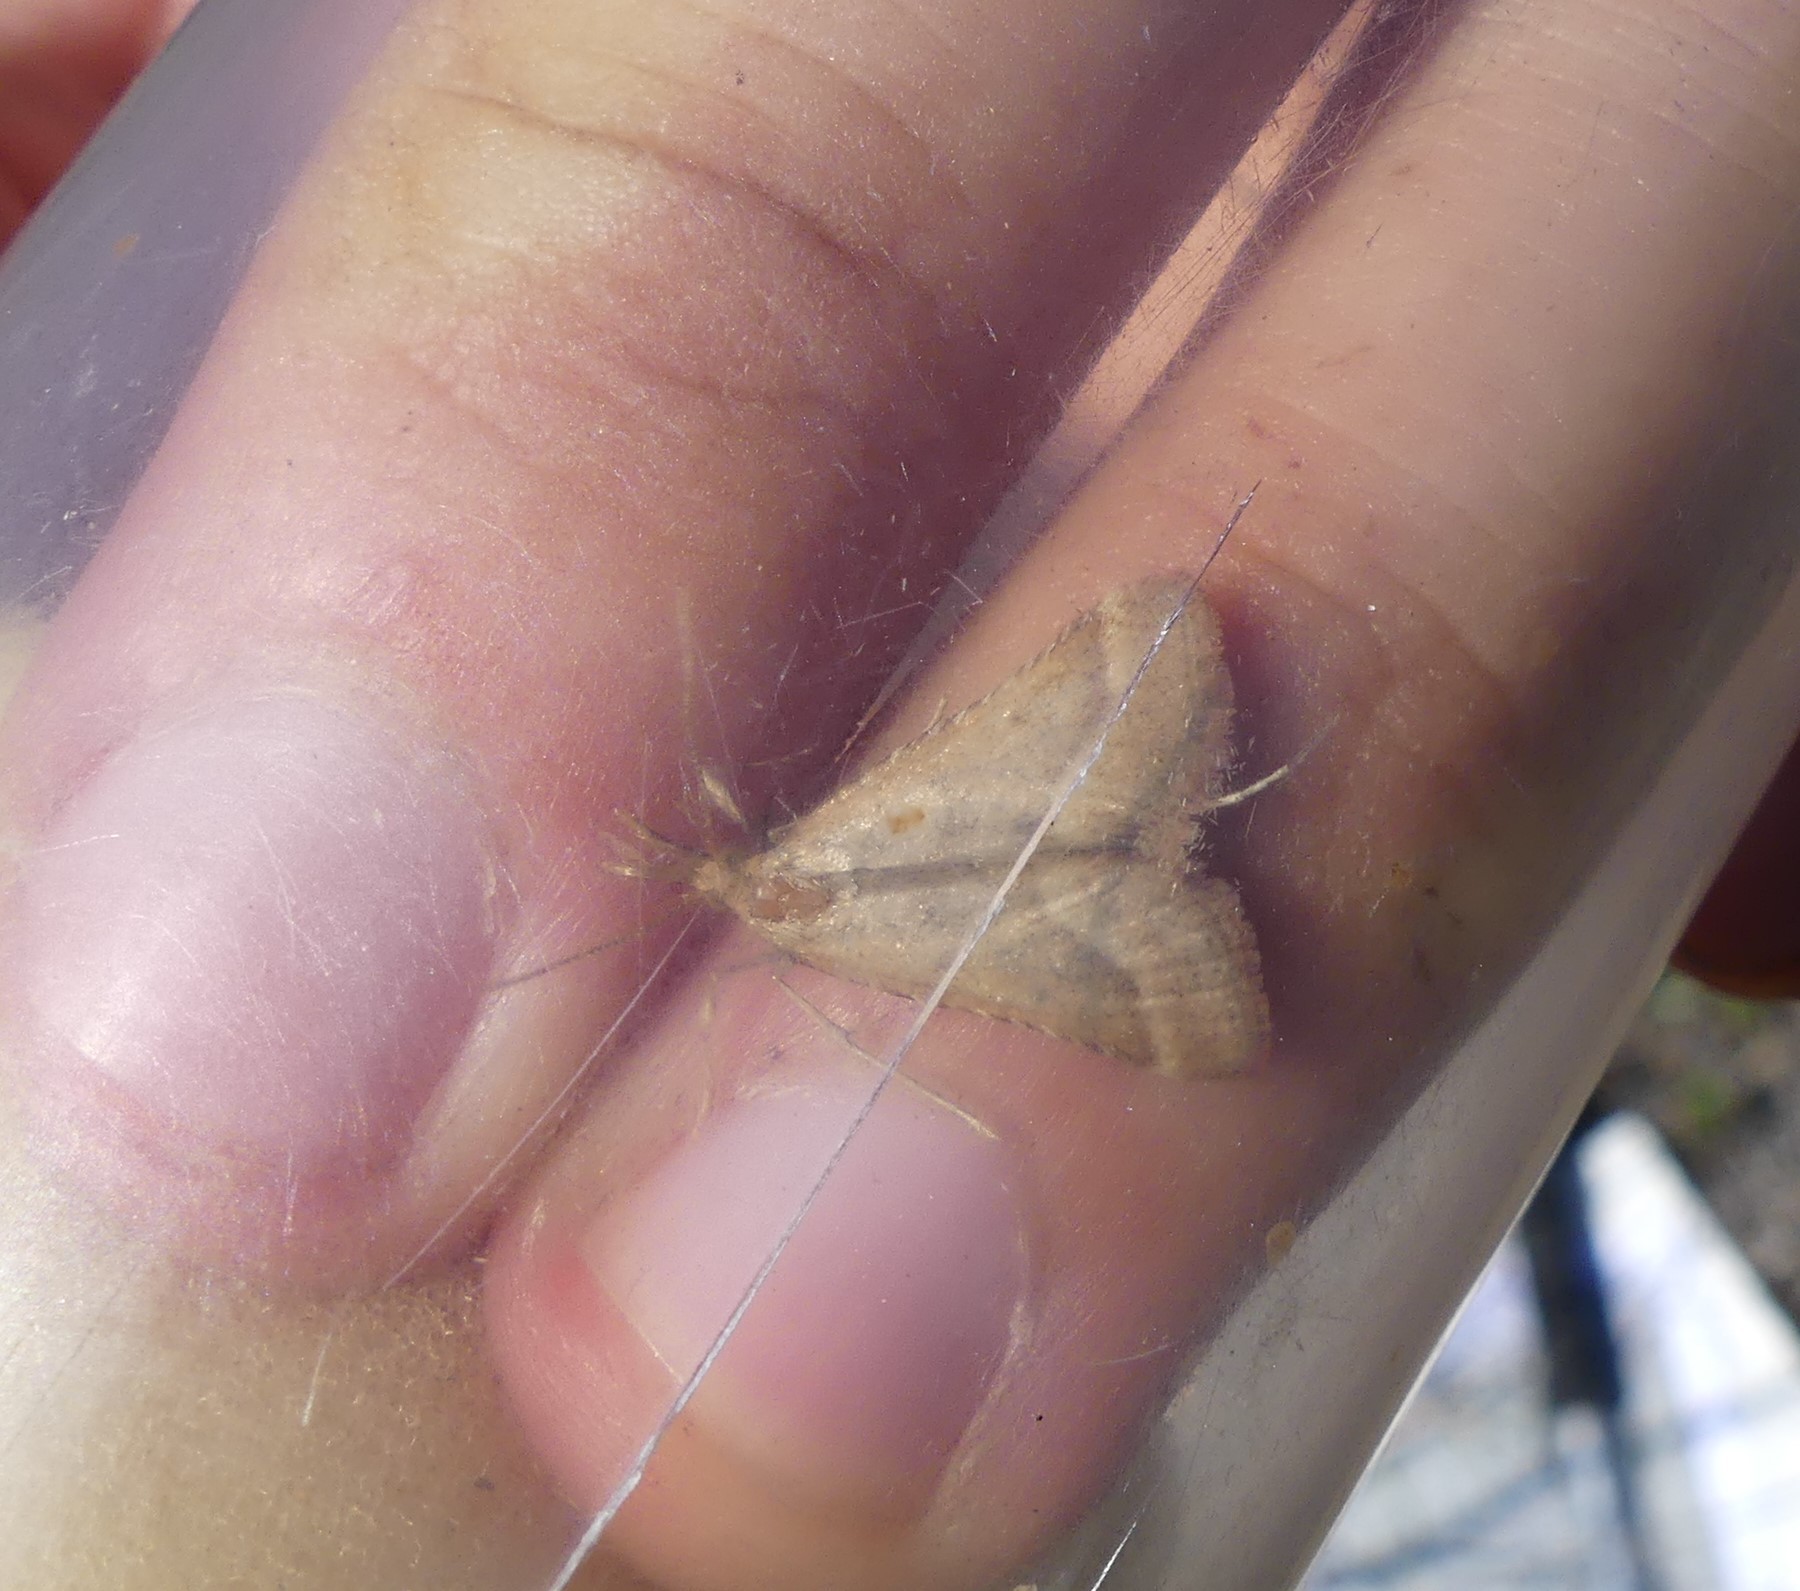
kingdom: Animalia
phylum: Arthropoda
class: Insecta
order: Lepidoptera
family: Pyralidae
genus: Synaphe
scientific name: Synaphe punctalis
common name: Long-legged tabby
